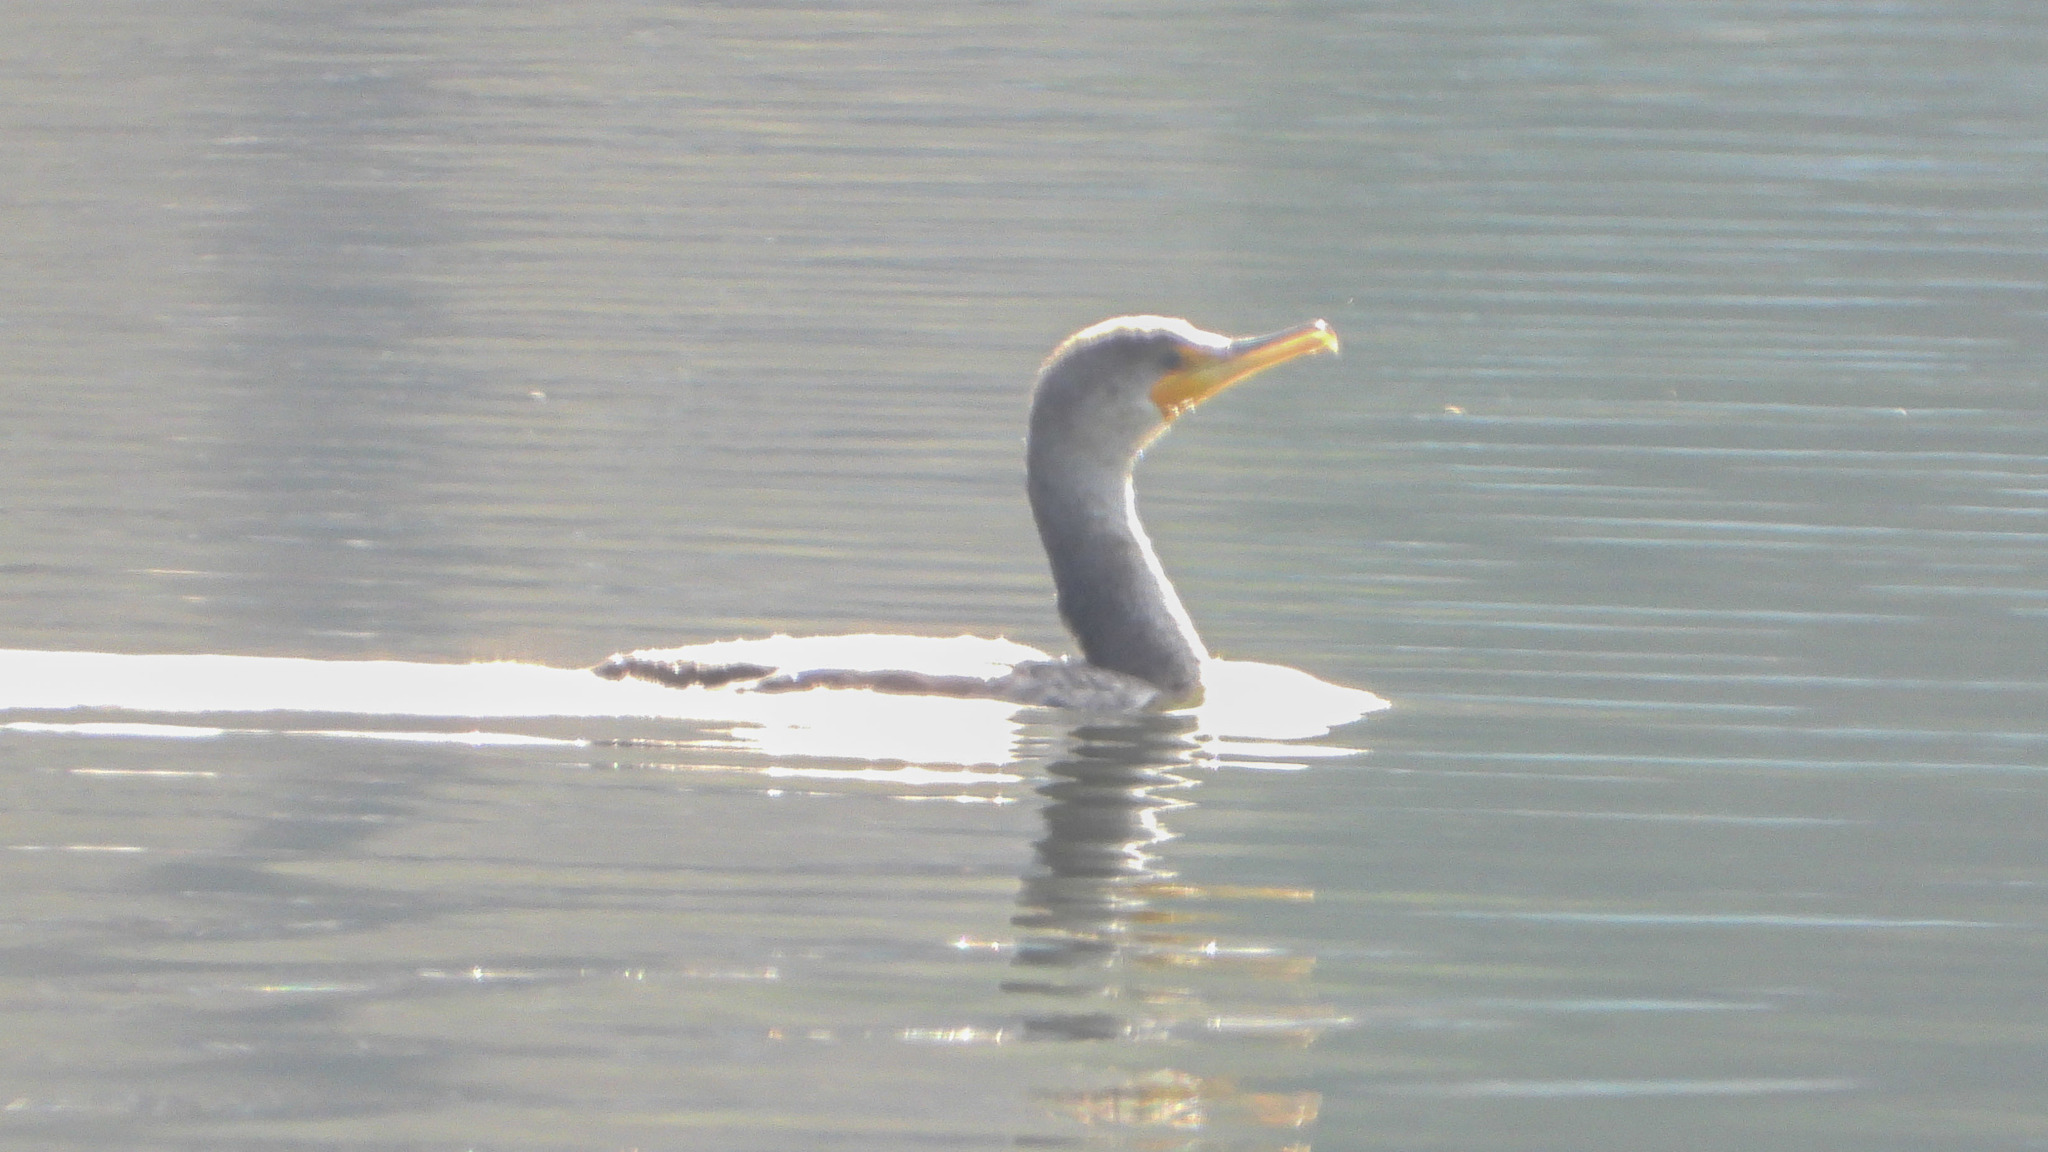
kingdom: Animalia
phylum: Chordata
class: Aves
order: Suliformes
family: Phalacrocoracidae
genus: Phalacrocorax
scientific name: Phalacrocorax auritus
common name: Double-crested cormorant
